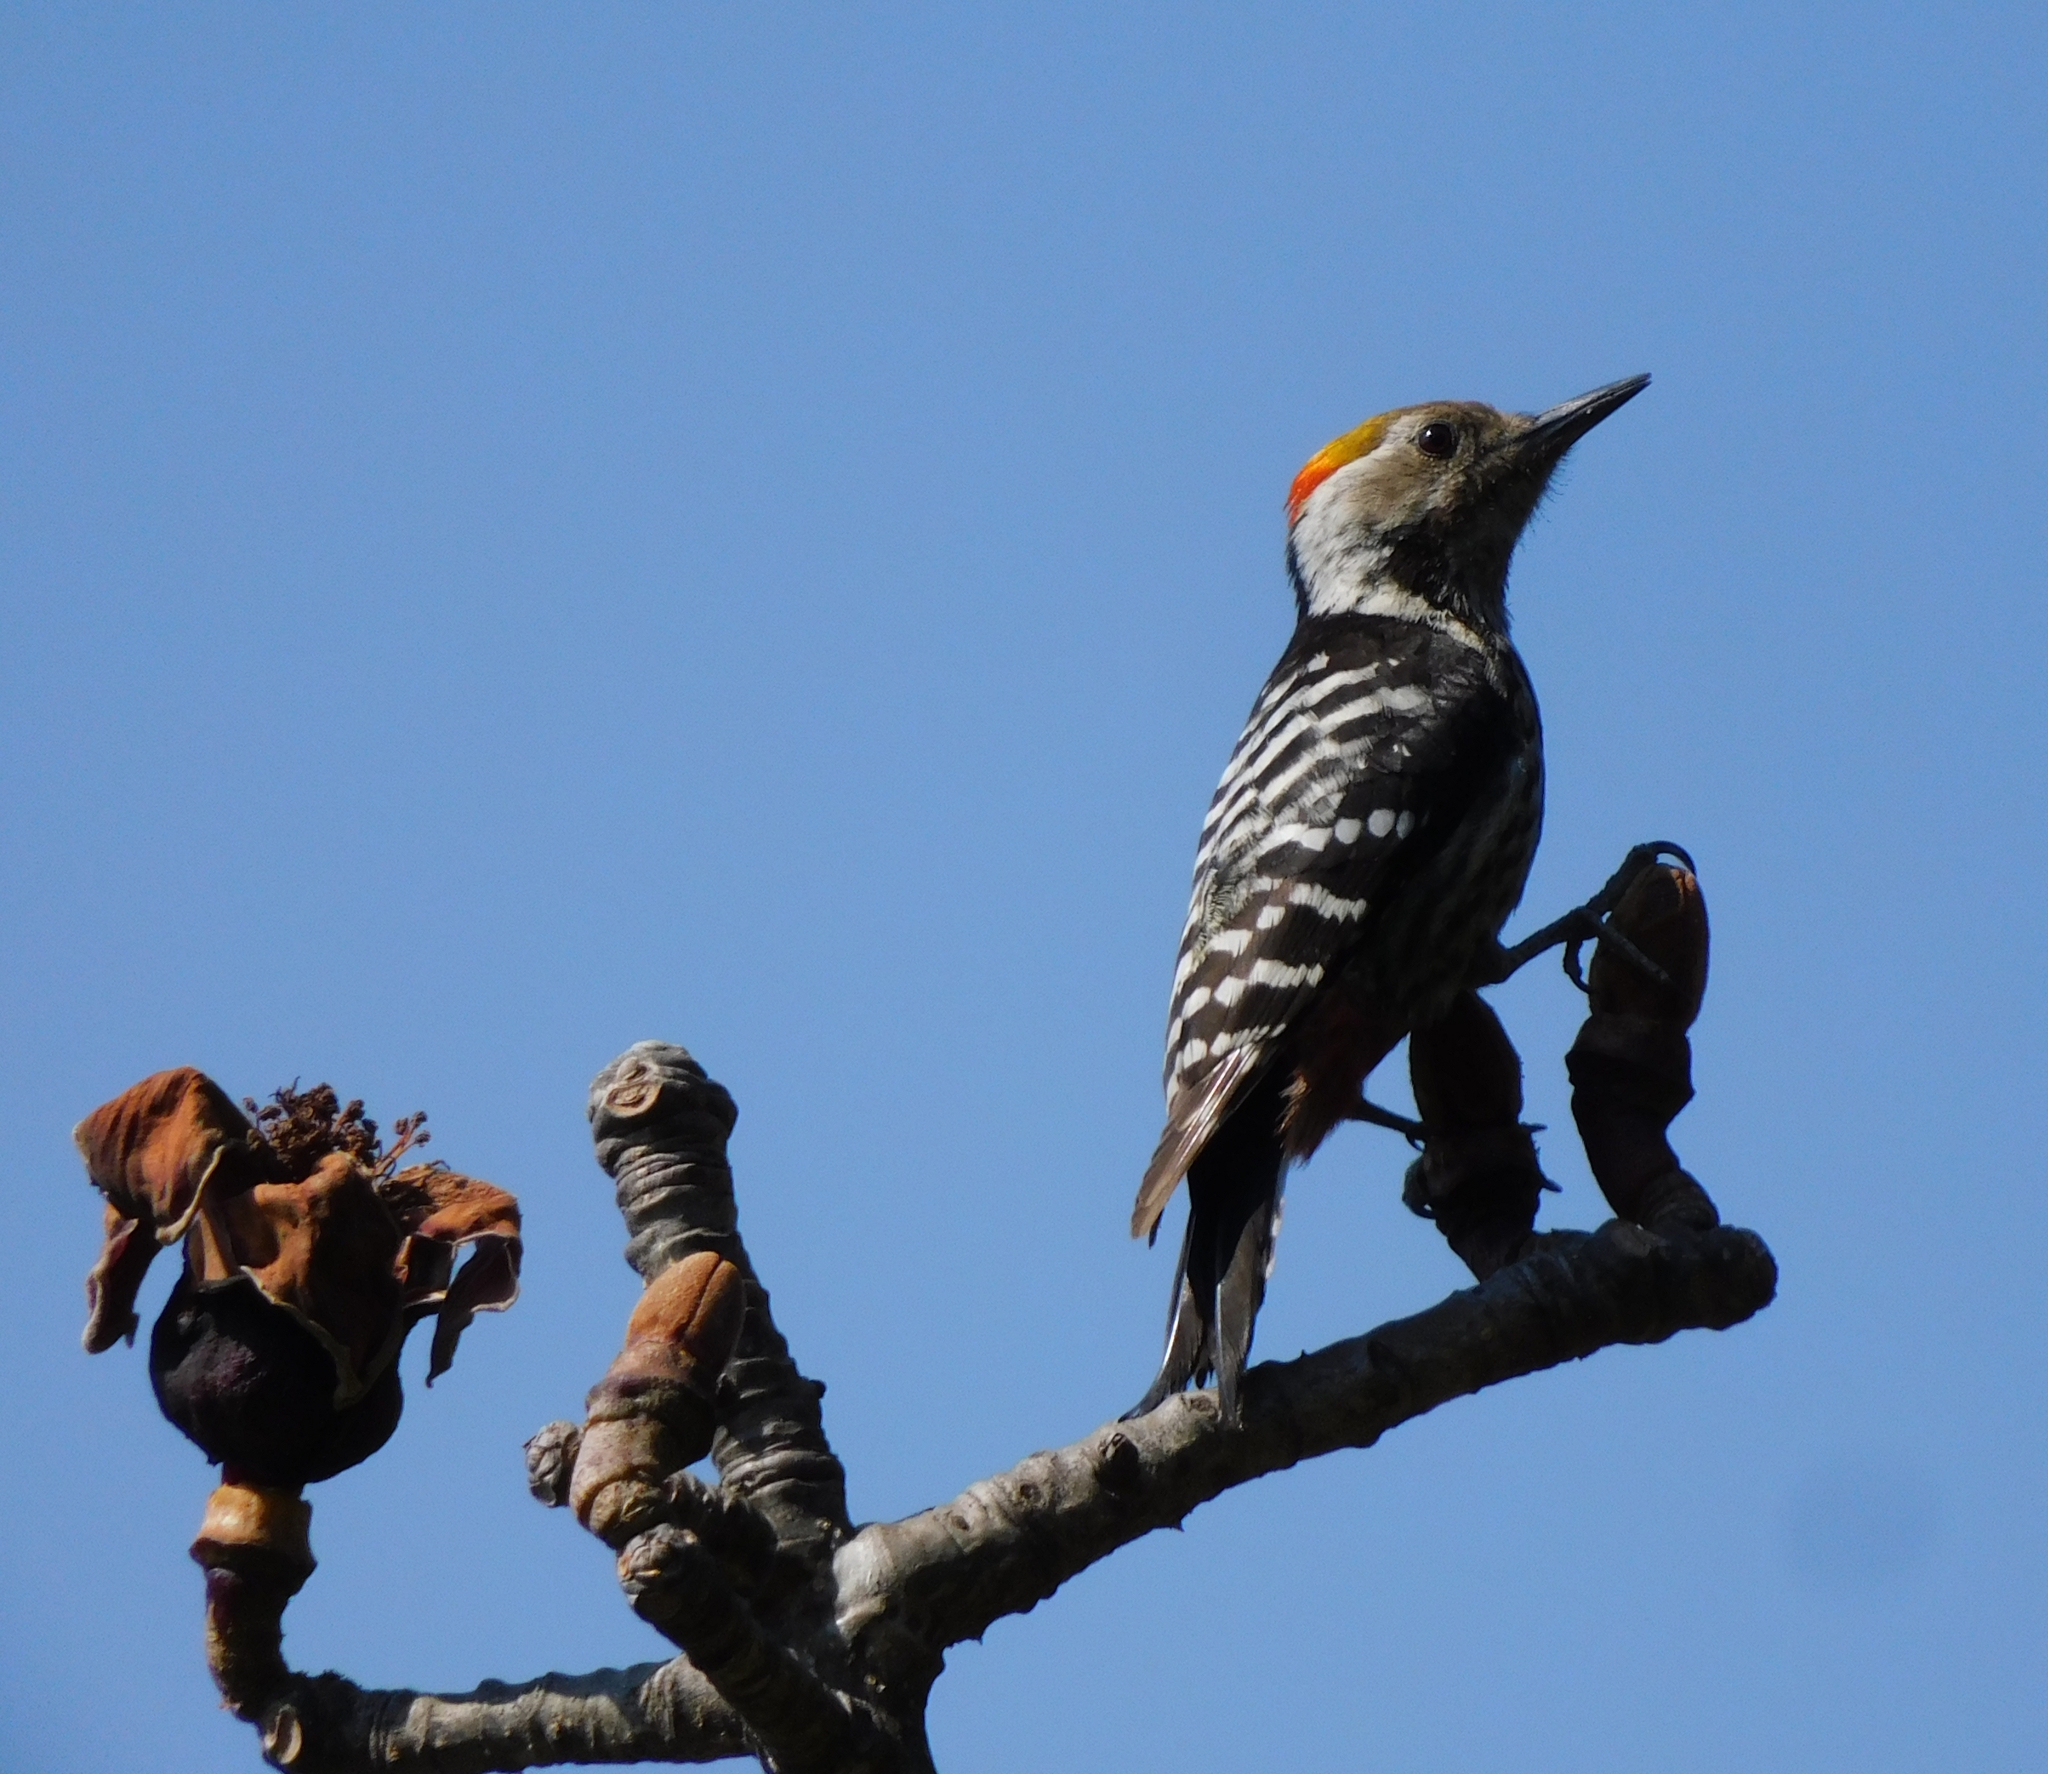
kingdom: Animalia
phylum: Chordata
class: Aves
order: Piciformes
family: Picidae
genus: Dendrocoptes
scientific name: Dendrocoptes auriceps
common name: Brown-fronted woodpecker
